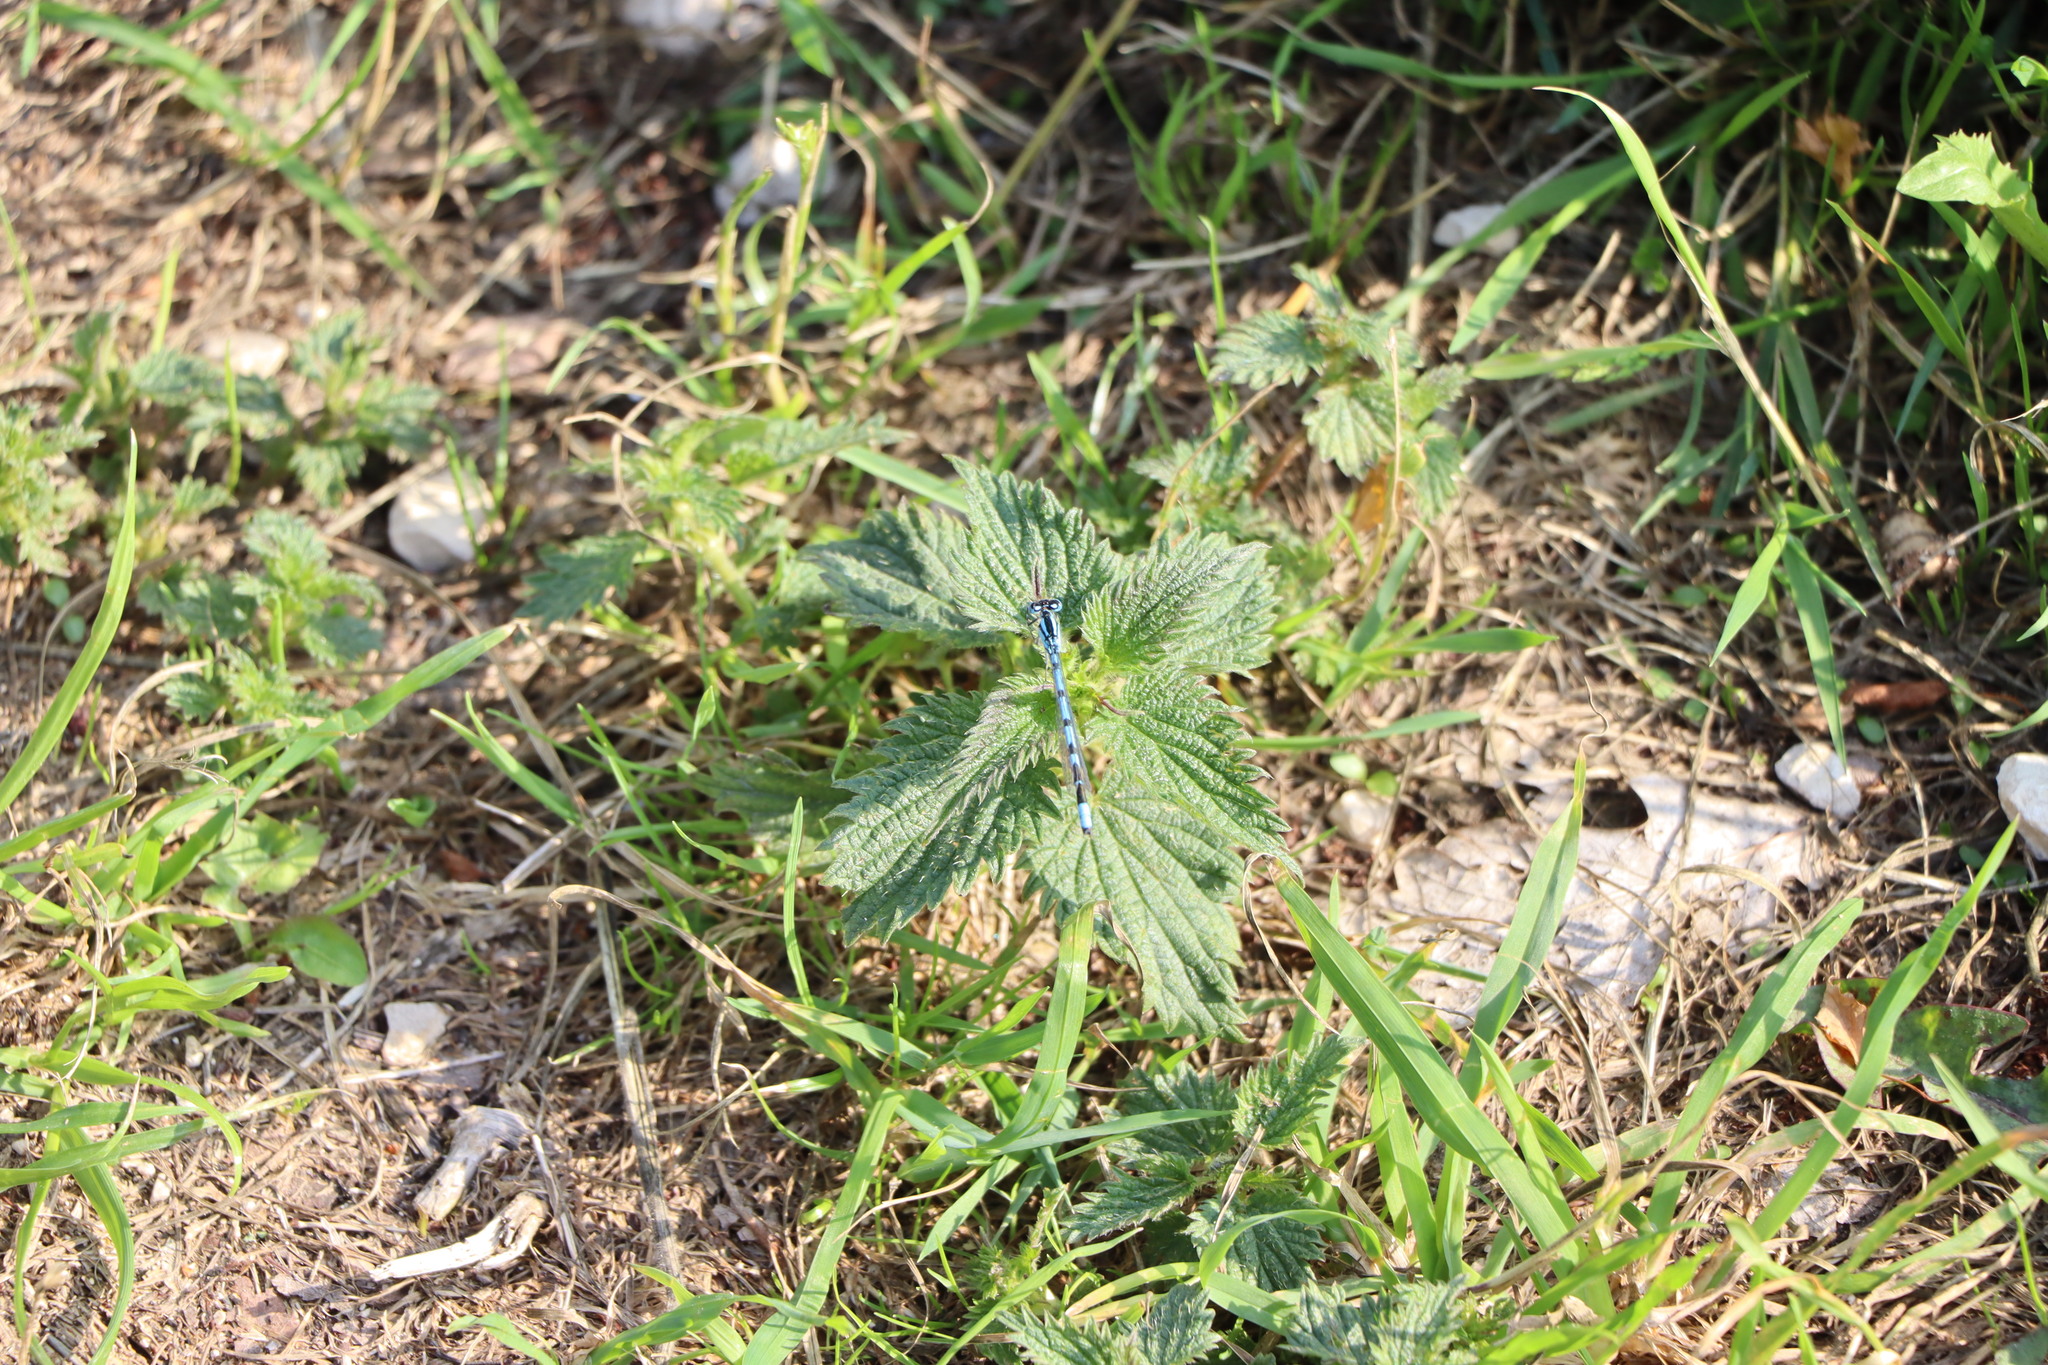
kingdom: Animalia
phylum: Arthropoda
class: Insecta
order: Odonata
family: Coenagrionidae
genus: Enallagma
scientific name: Enallagma cyathigerum
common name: Common blue damselfly
